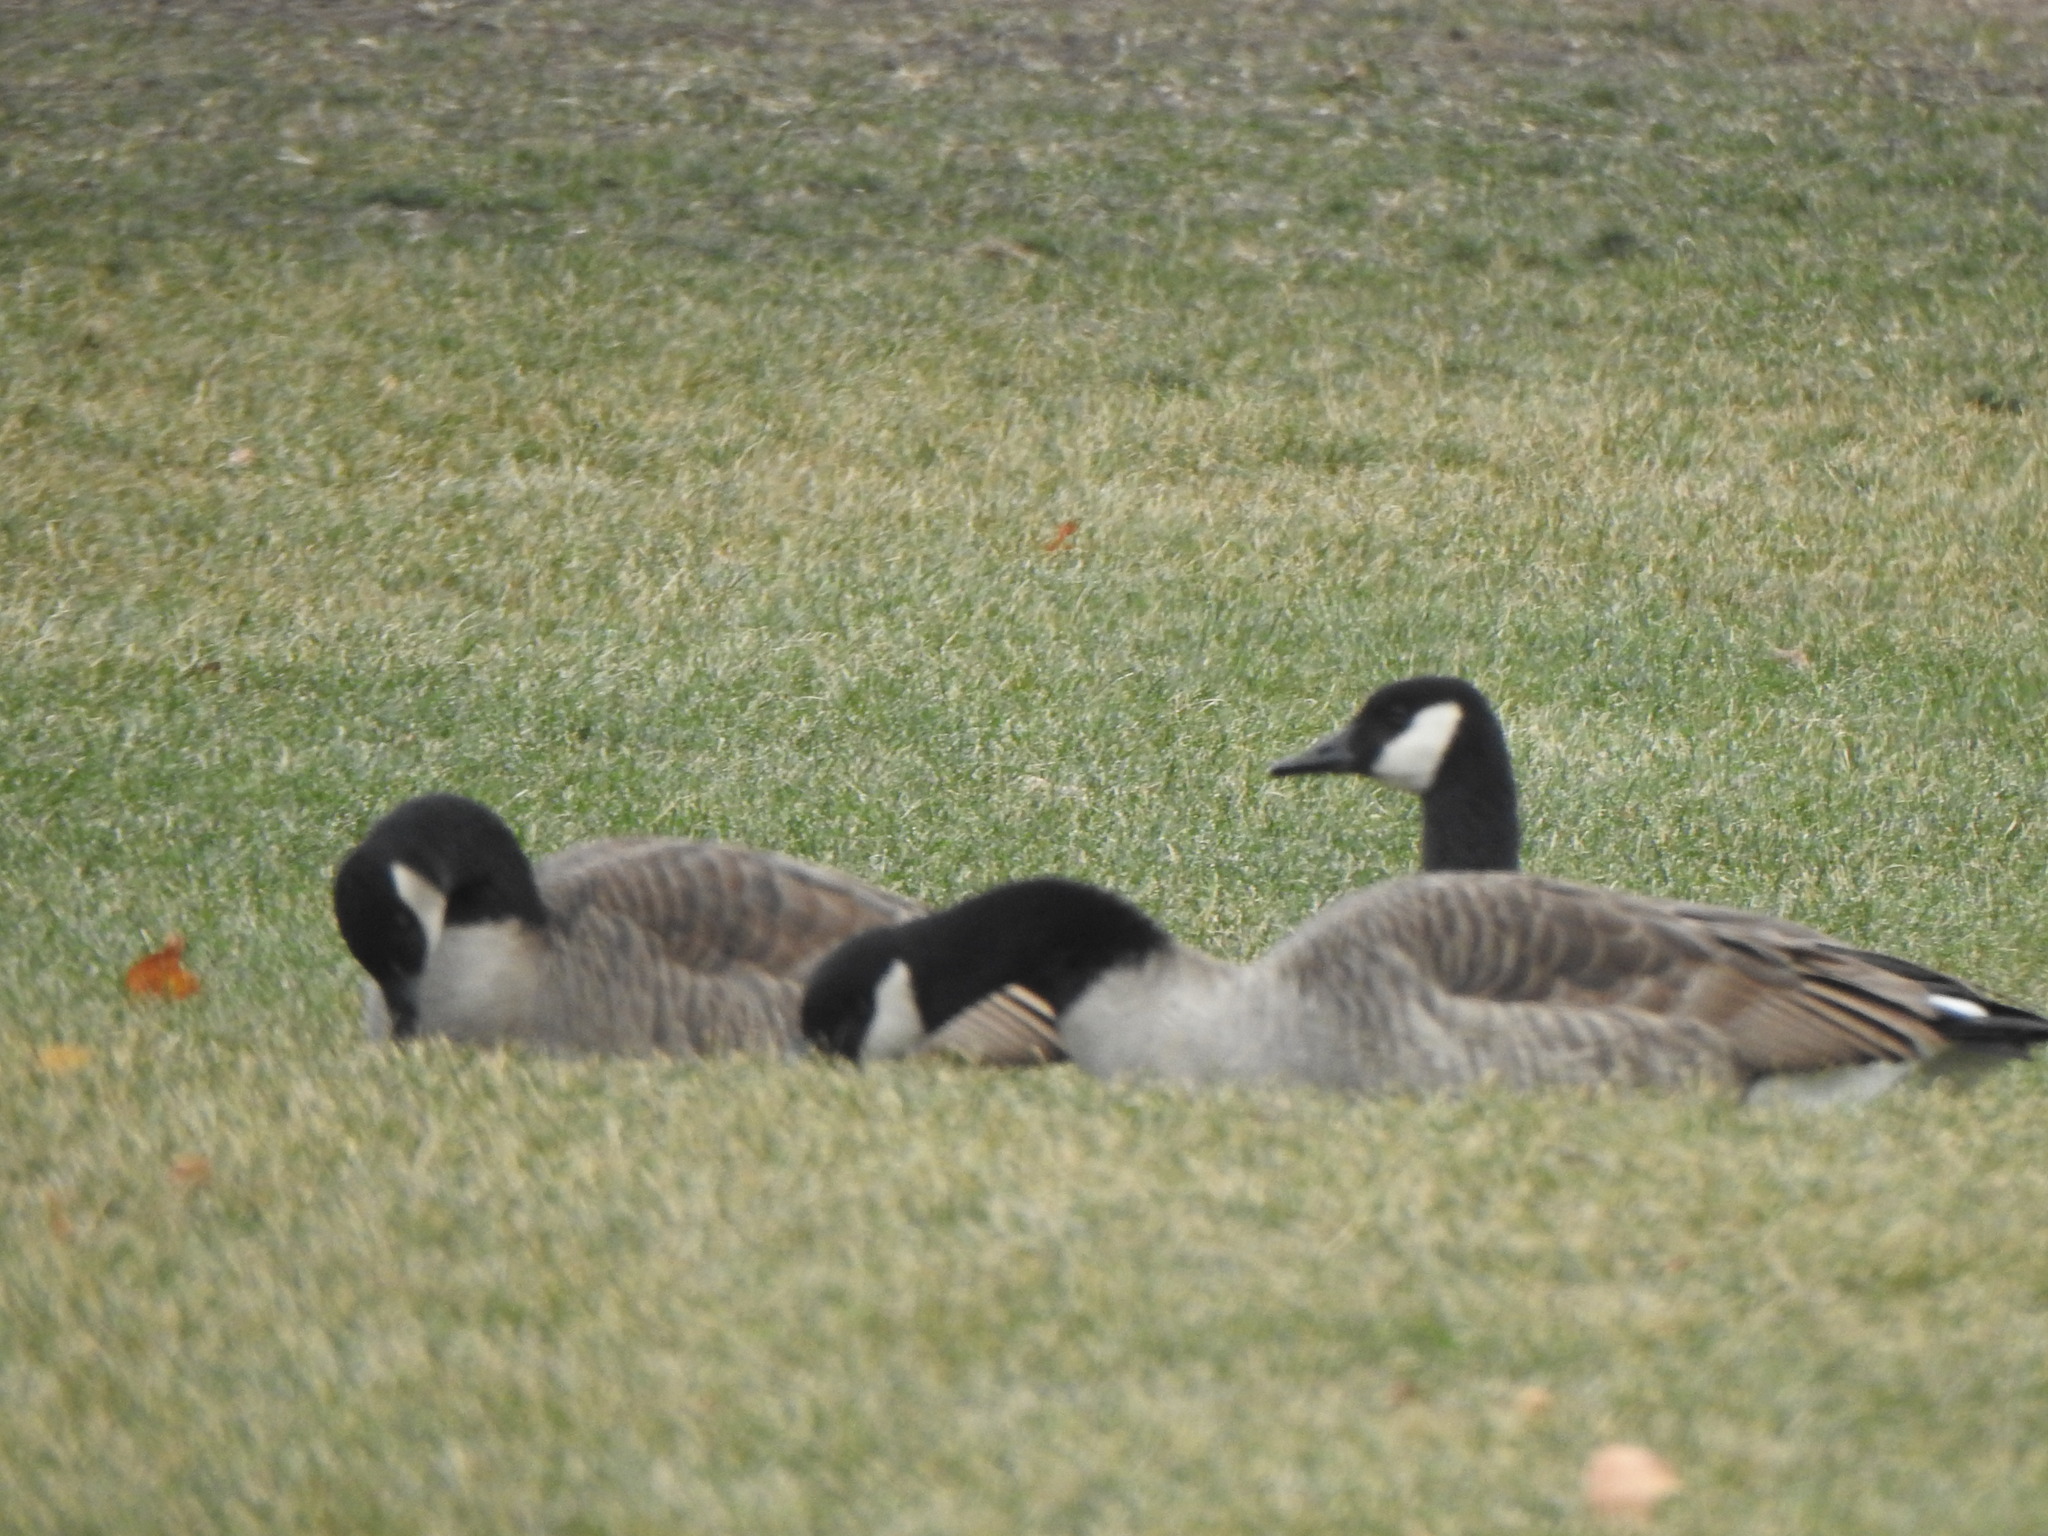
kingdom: Animalia
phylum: Chordata
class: Aves
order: Anseriformes
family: Anatidae
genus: Branta
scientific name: Branta canadensis
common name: Canada goose
